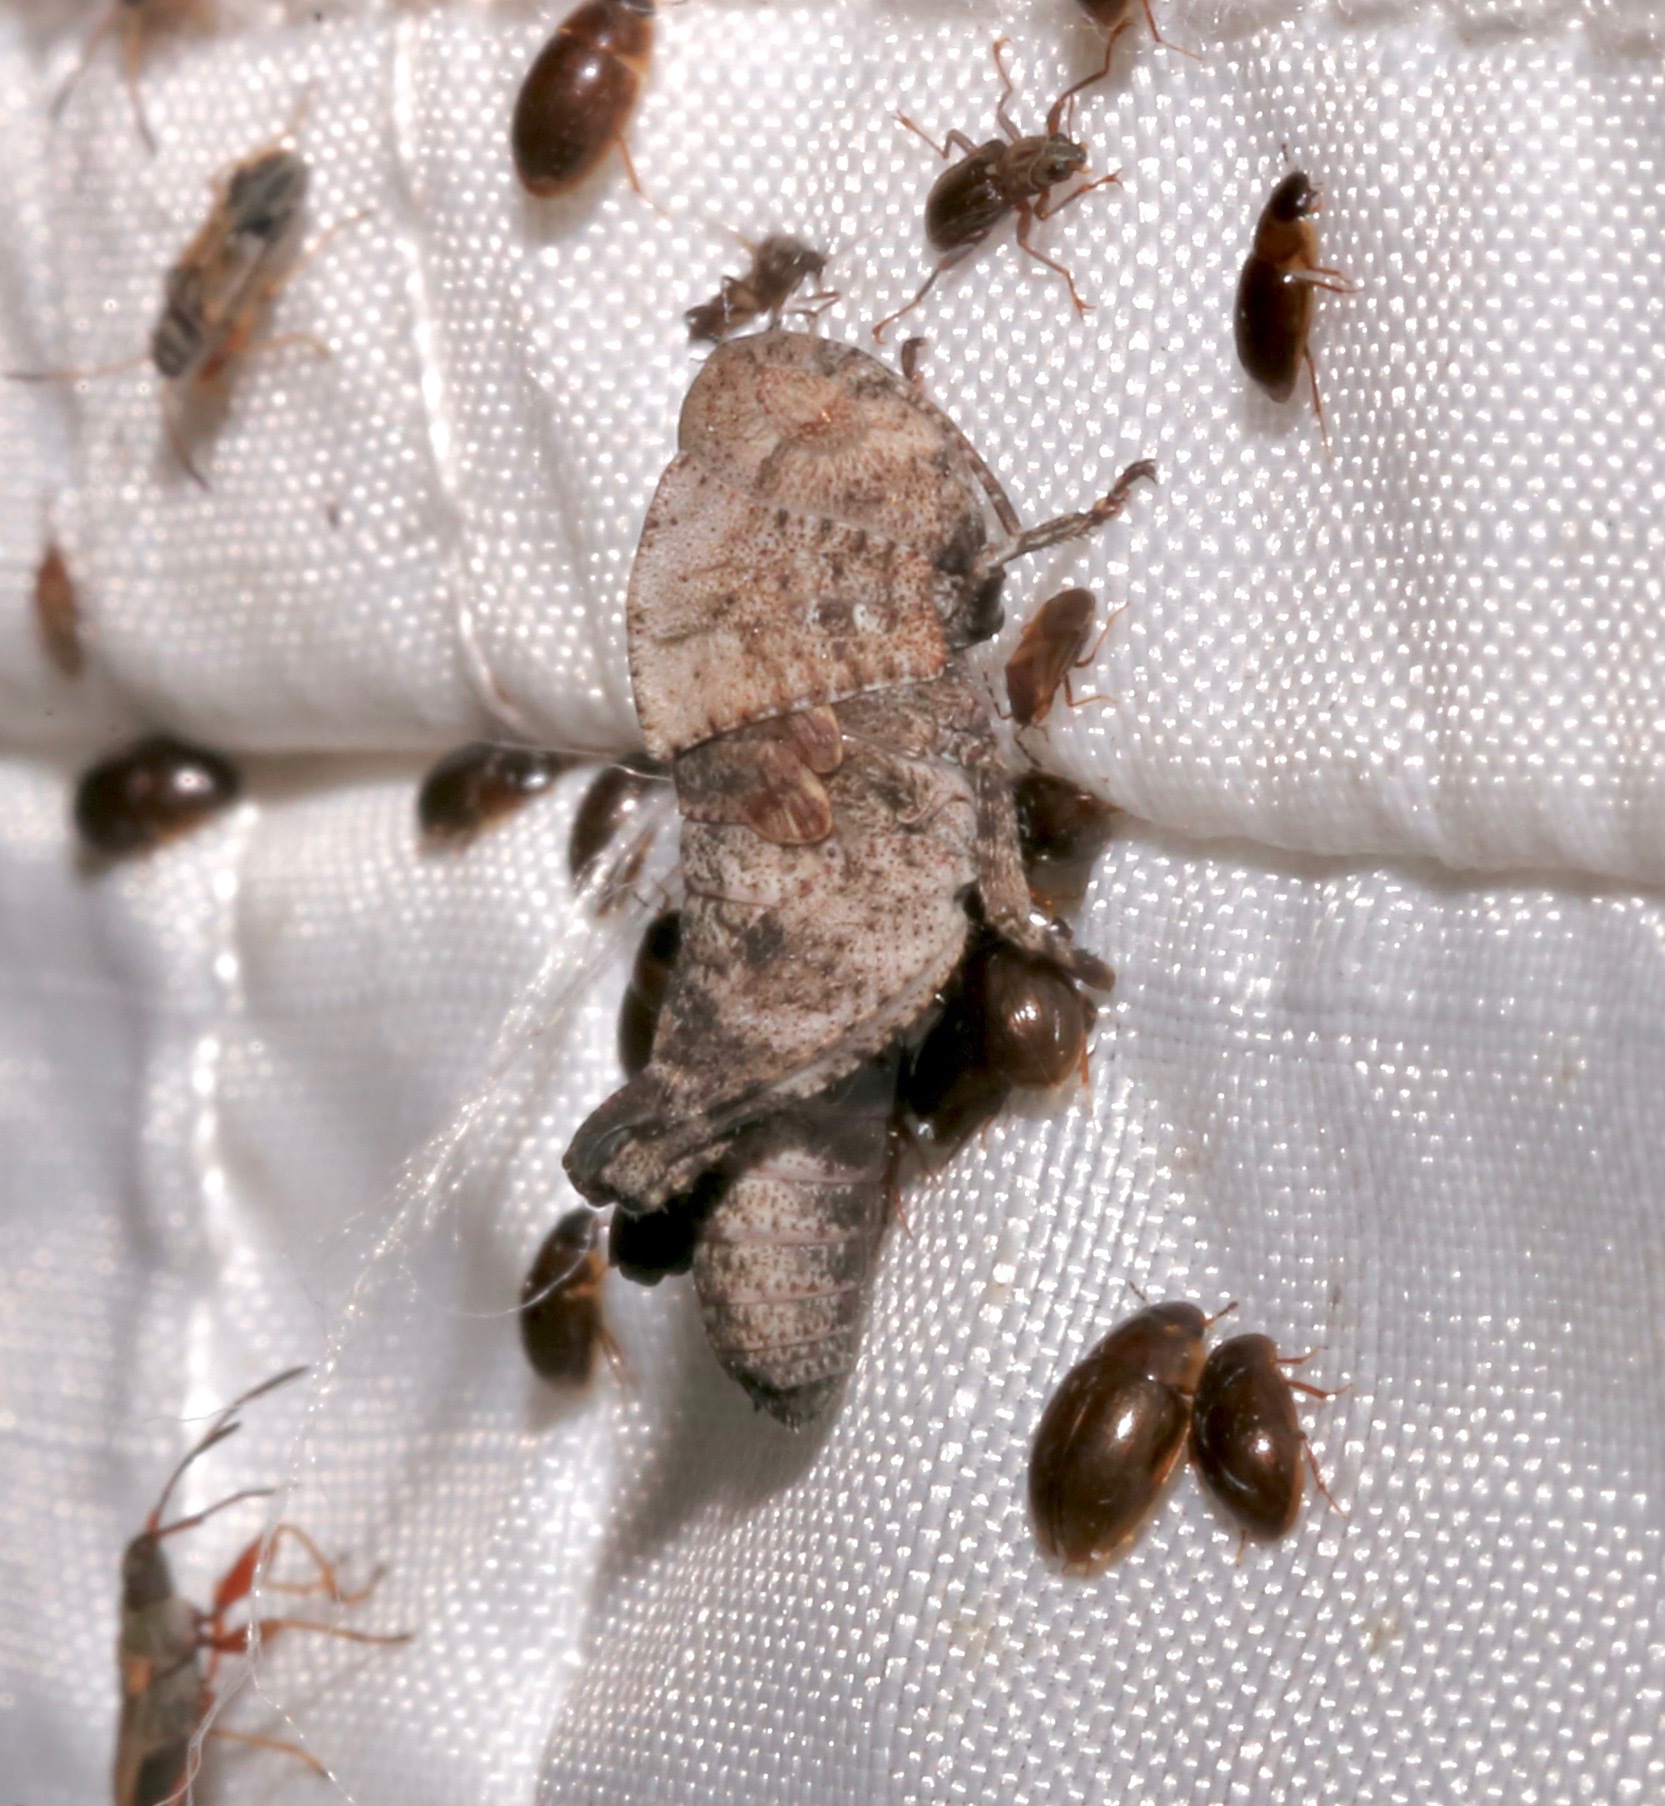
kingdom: Animalia
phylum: Arthropoda
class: Insecta
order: Orthoptera
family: Acrididae
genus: Arphia
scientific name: Arphia granulata
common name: Southern yellow-winged grasshopper
